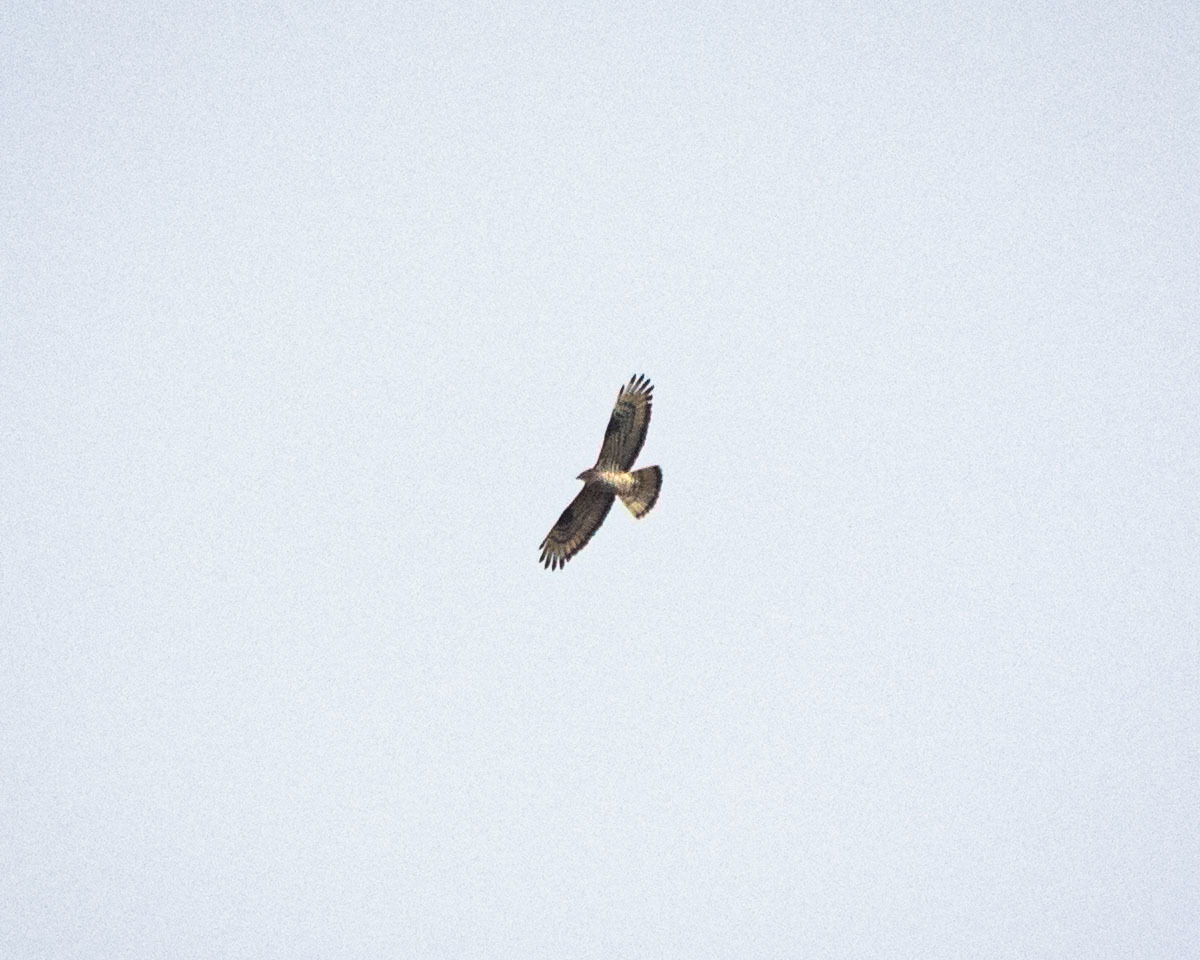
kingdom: Animalia
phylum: Chordata
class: Aves
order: Accipitriformes
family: Accipitridae
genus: Pernis
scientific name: Pernis apivorus
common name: European honey buzzard
